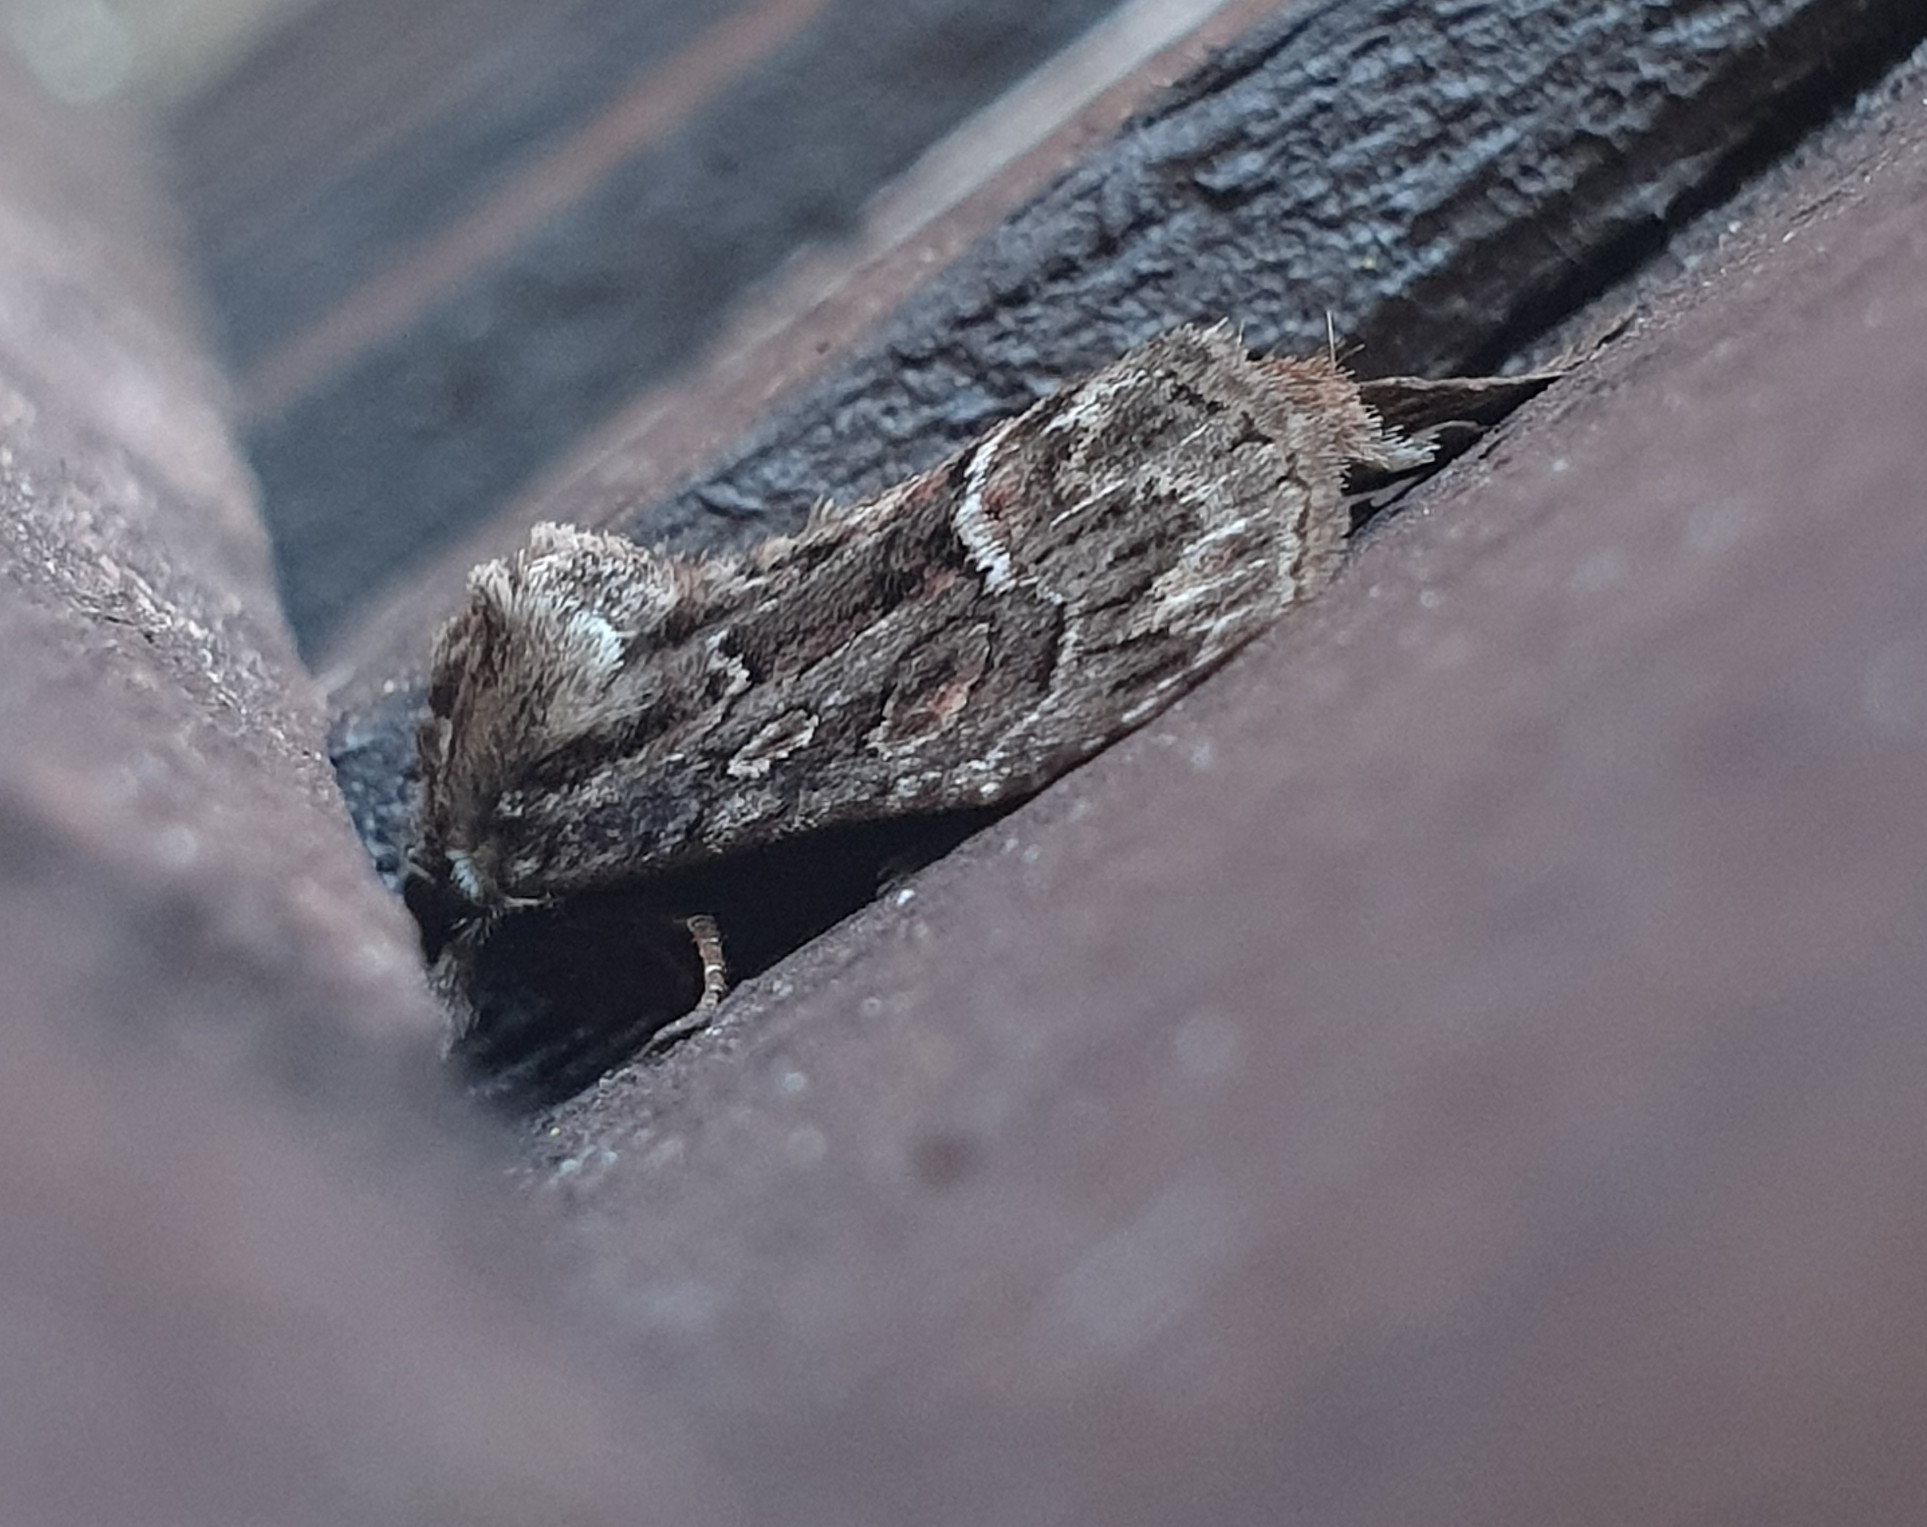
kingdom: Animalia
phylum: Arthropoda
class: Insecta
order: Lepidoptera
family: Noctuidae
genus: Thalpophila
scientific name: Thalpophila matura
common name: Straw underwing
